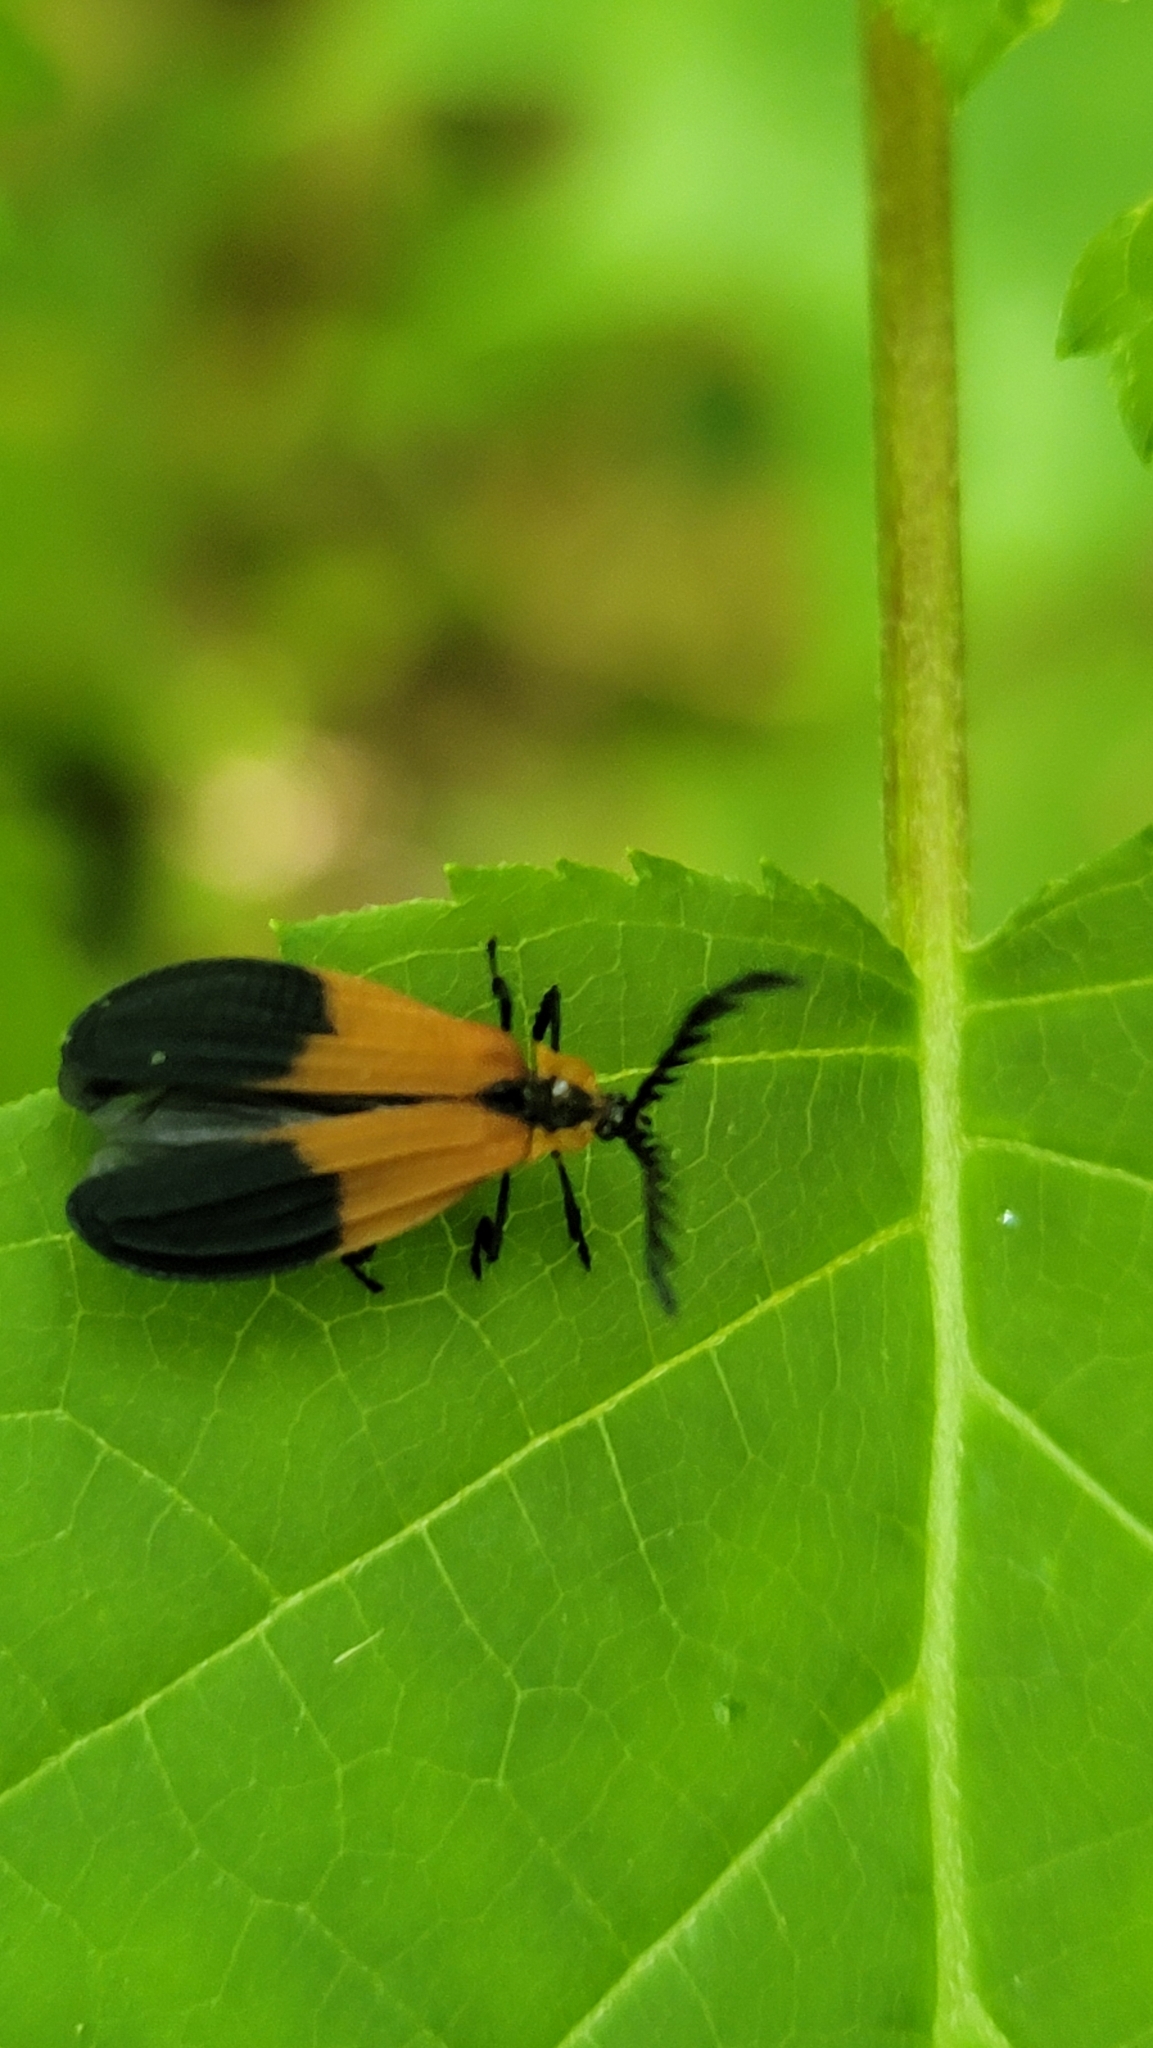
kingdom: Animalia
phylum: Arthropoda
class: Insecta
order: Coleoptera
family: Lycidae
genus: Caenia
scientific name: Caenia dimidiata
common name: Terminal net-winged beetle
